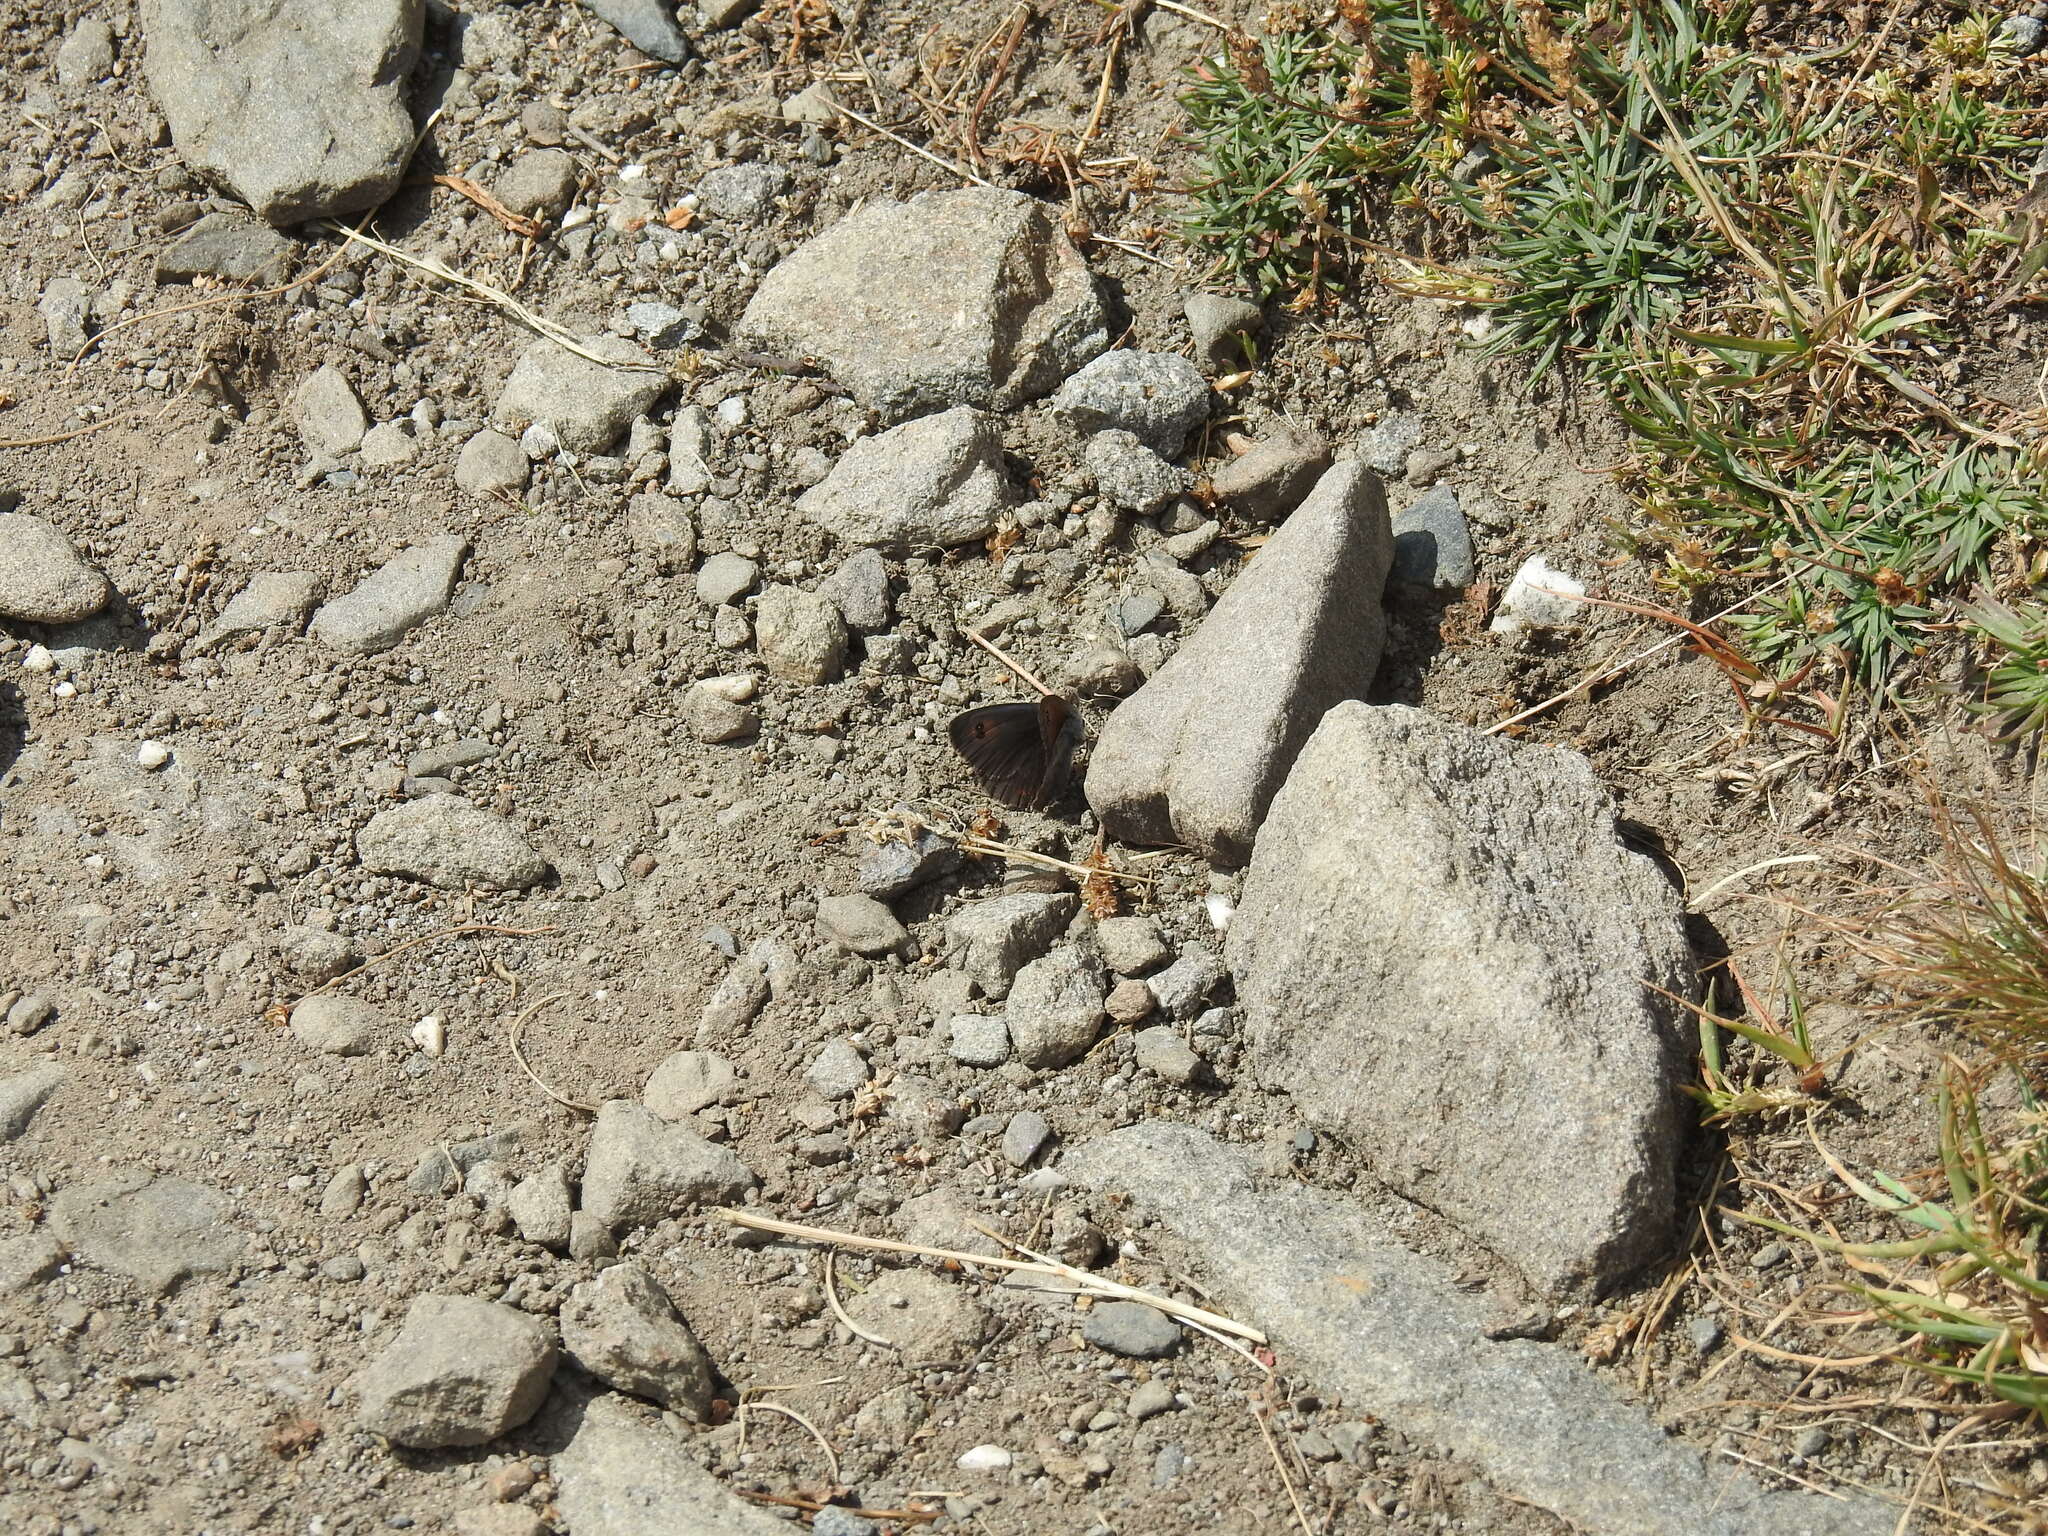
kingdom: Animalia
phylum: Arthropoda
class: Insecta
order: Lepidoptera
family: Nymphalidae
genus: Erebia
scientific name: Erebia cassioides
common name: Common brassy ringlet
